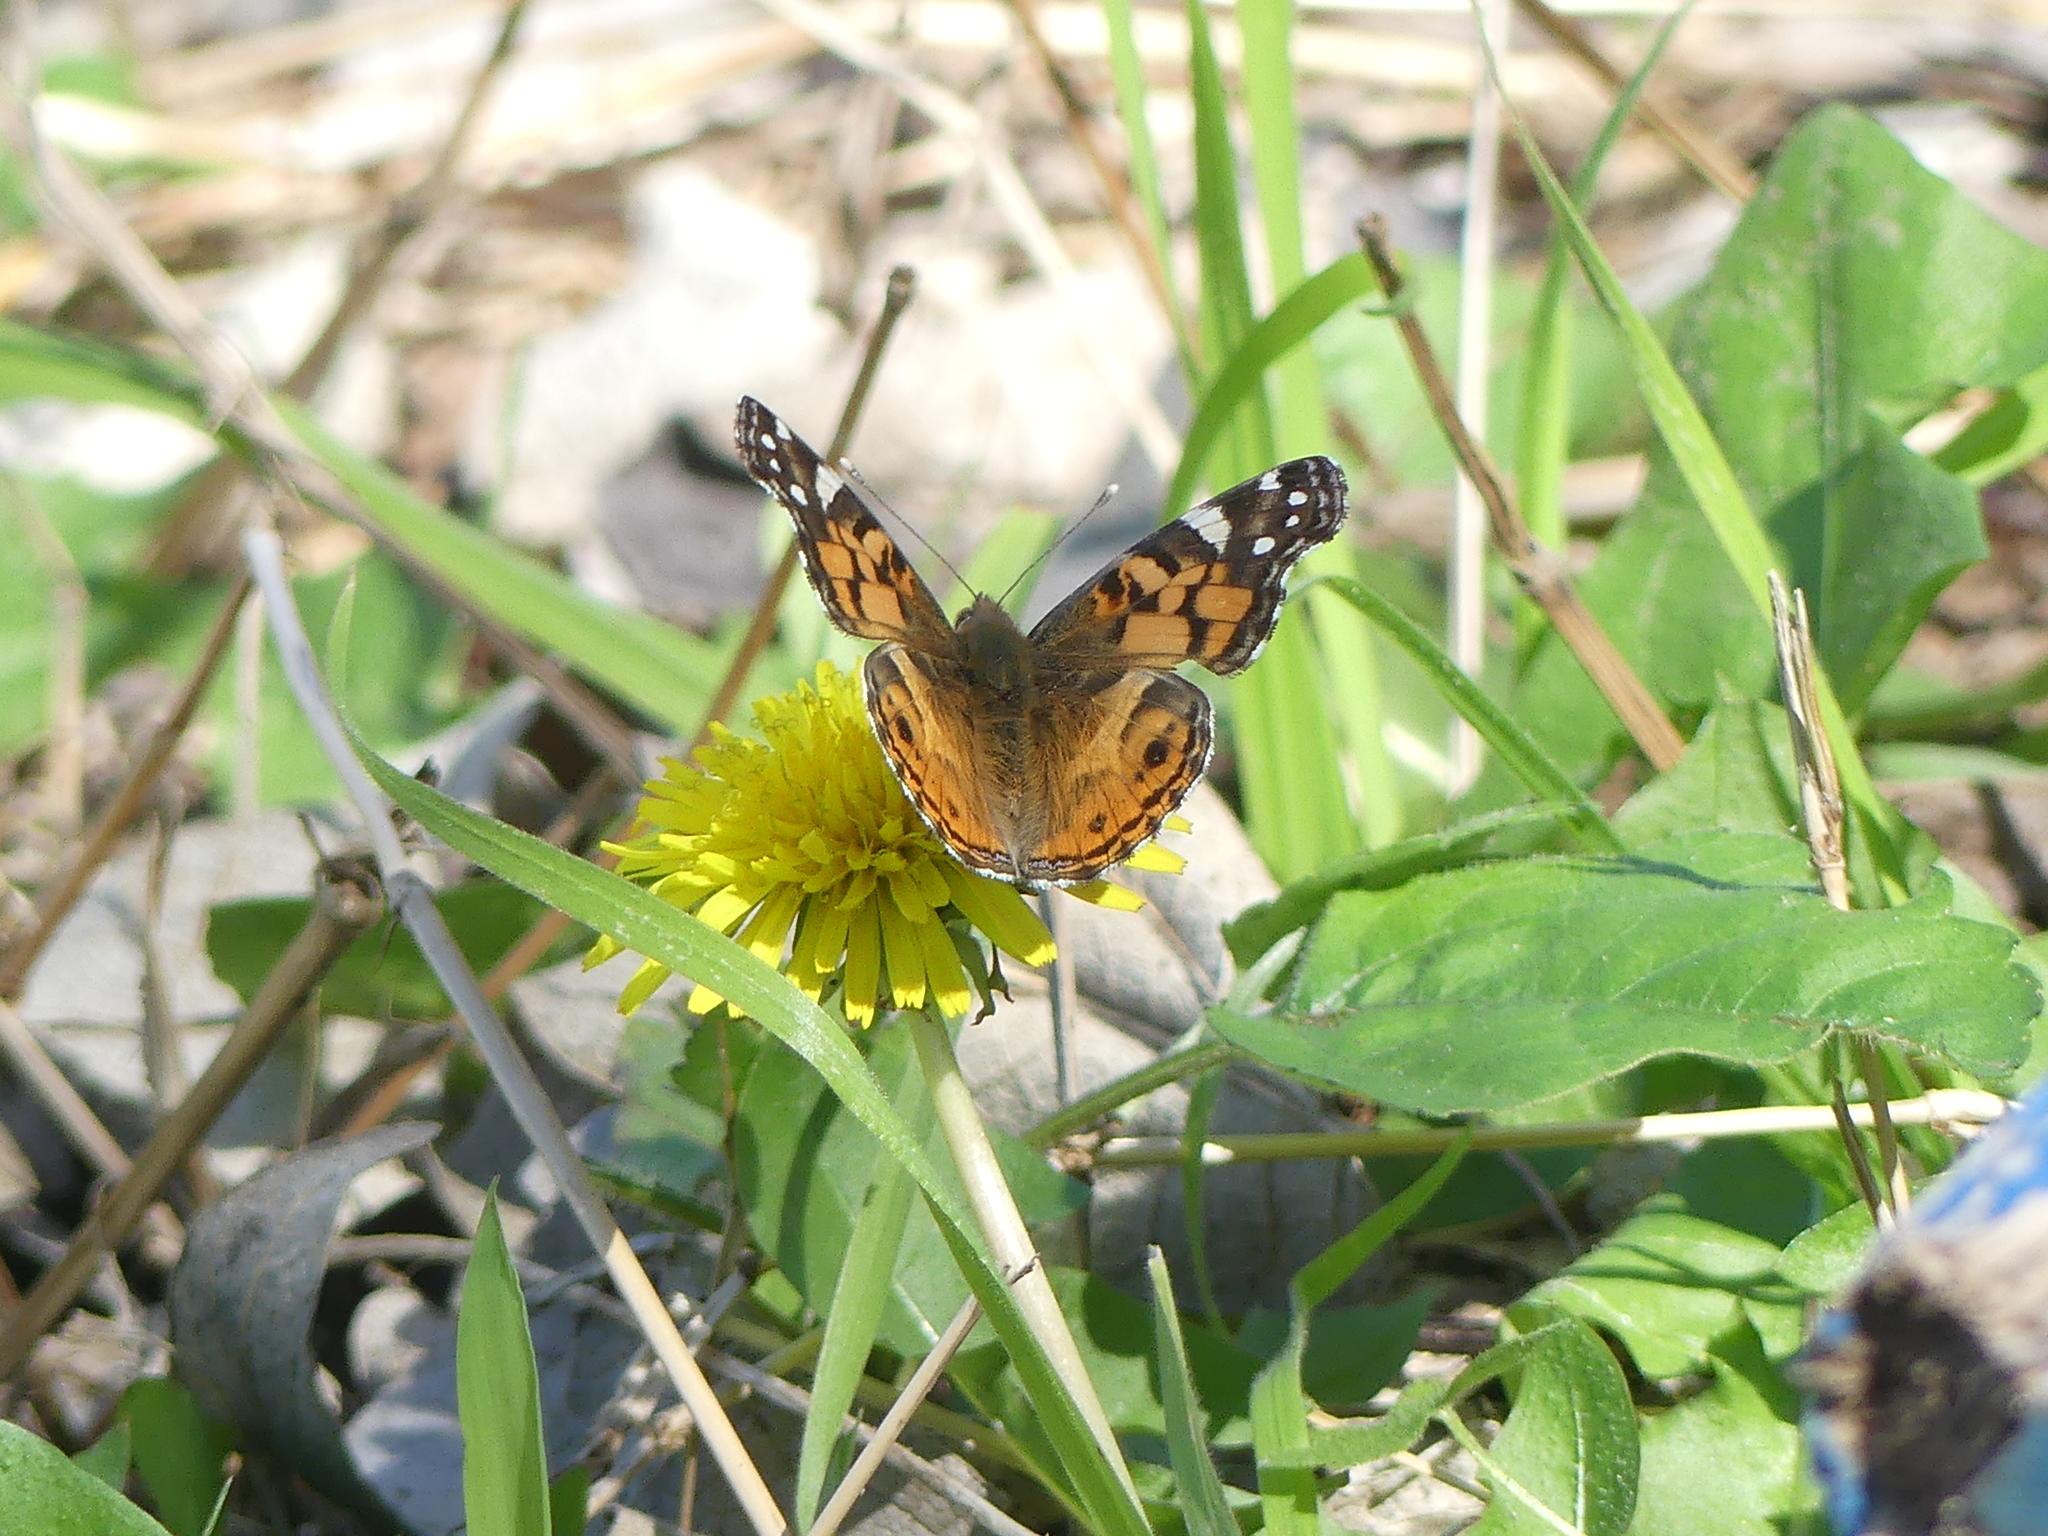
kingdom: Animalia
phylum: Arthropoda
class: Insecta
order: Lepidoptera
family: Nymphalidae
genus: Vanessa
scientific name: Vanessa virginiensis
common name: American lady
